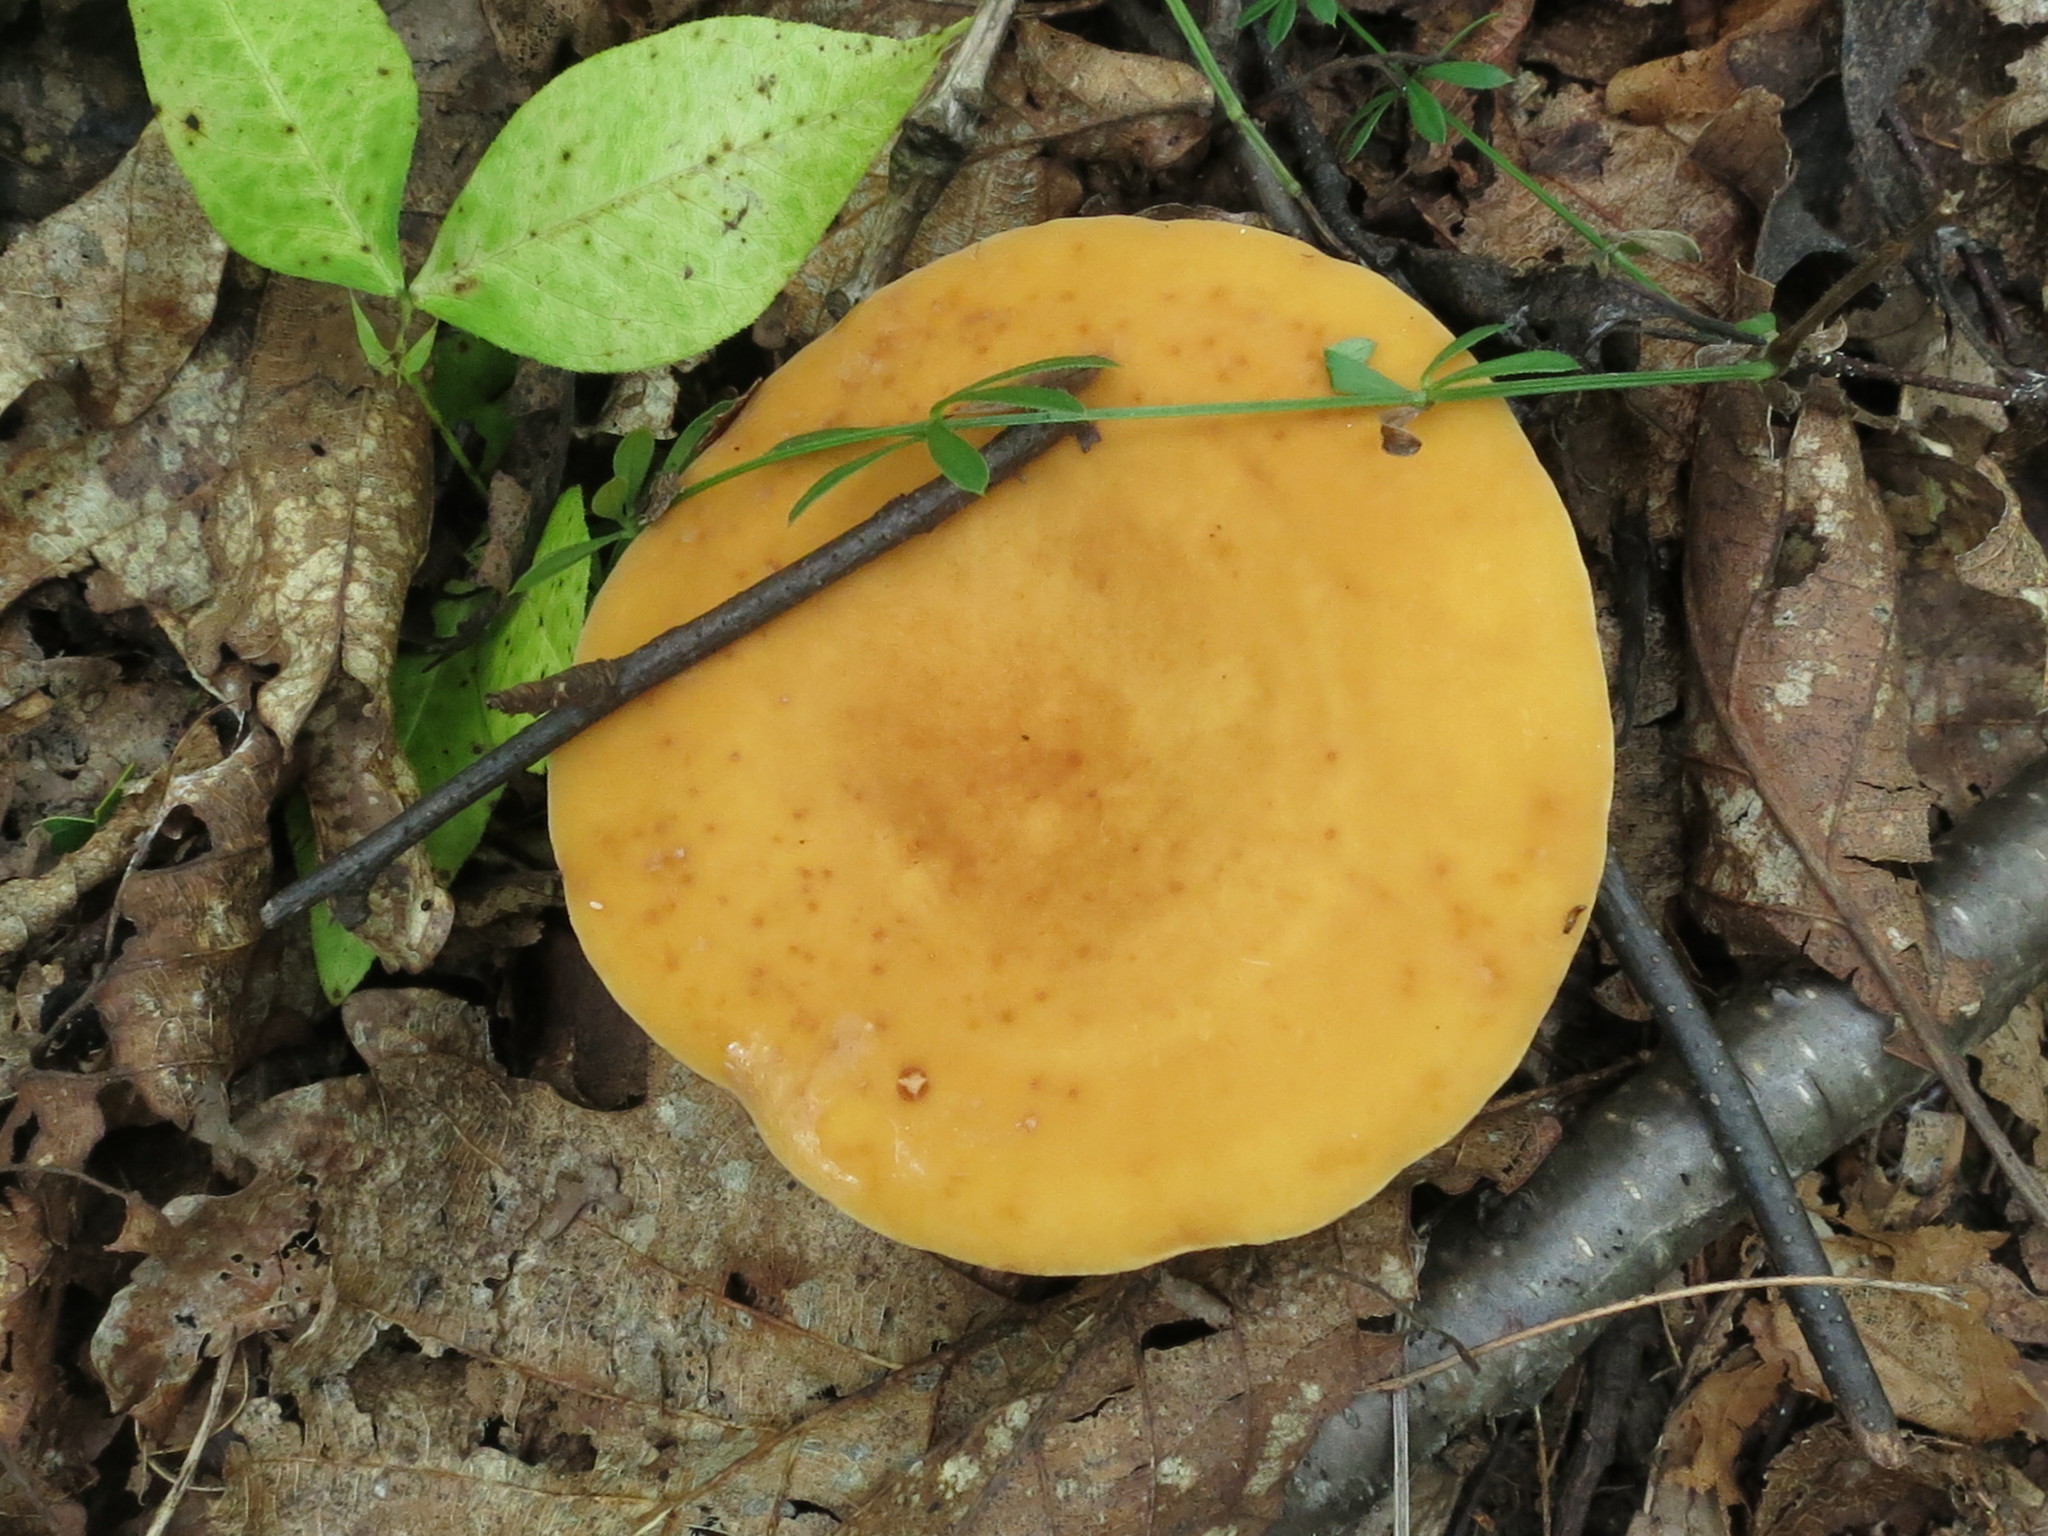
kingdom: Fungi
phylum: Basidiomycota
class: Agaricomycetes
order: Russulales
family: Russulaceae
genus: Lactifluus
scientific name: Lactifluus volemus
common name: Fishy milkcap
